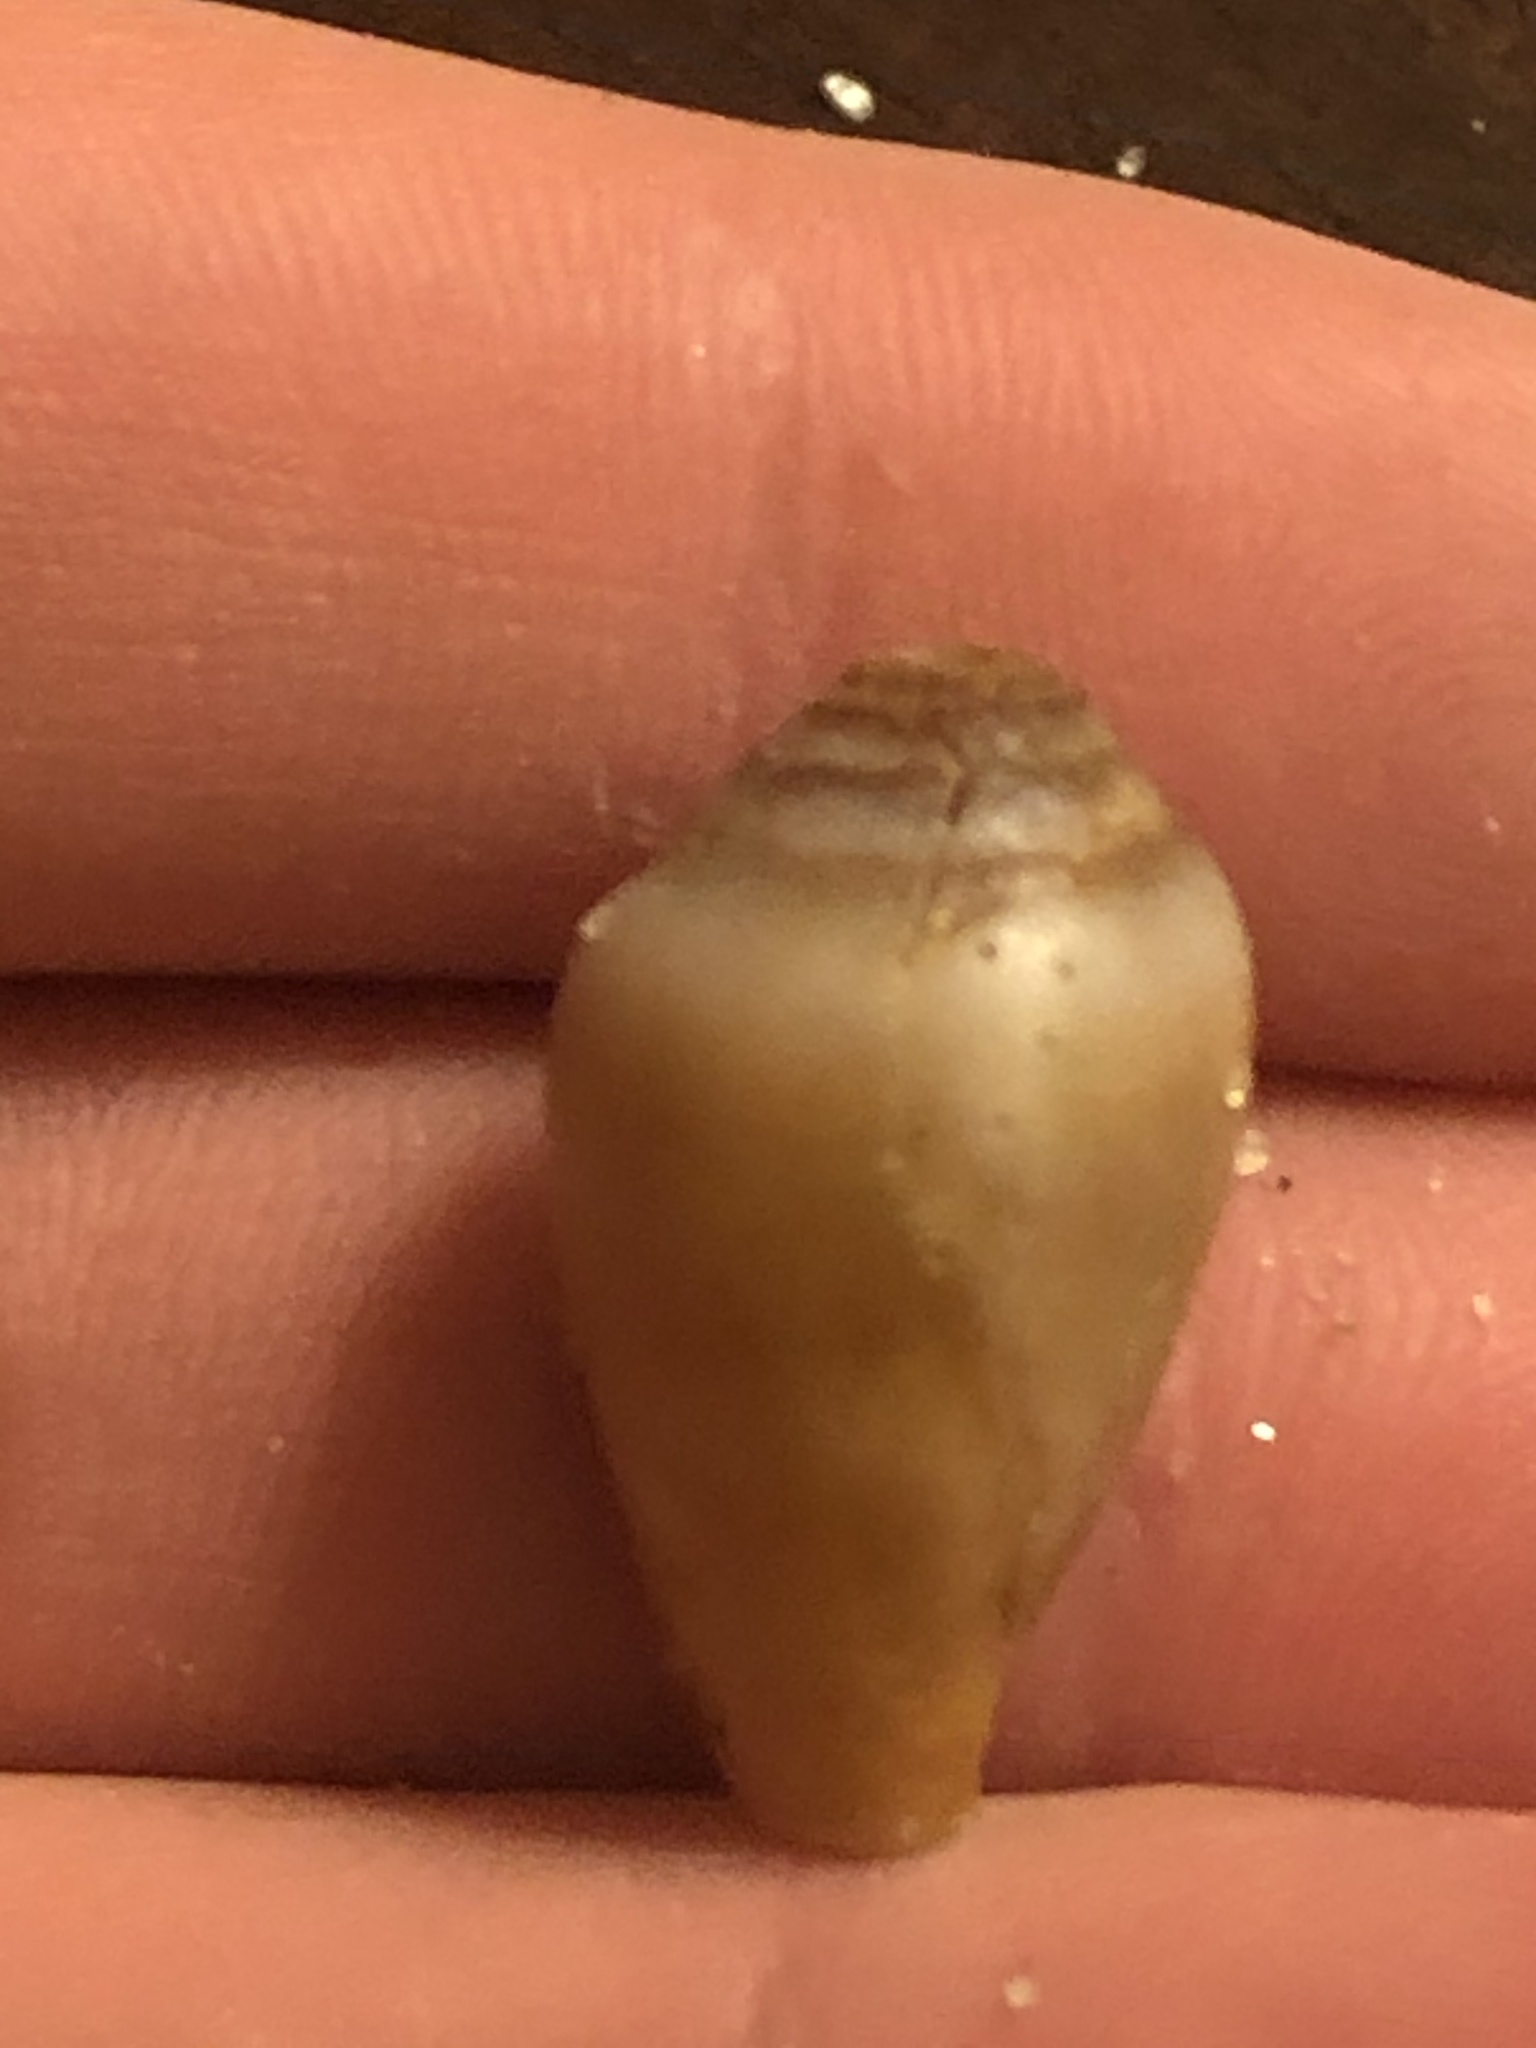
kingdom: Animalia
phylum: Mollusca
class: Gastropoda
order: Neogastropoda
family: Conidae
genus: Californiconus
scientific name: Californiconus californicus
